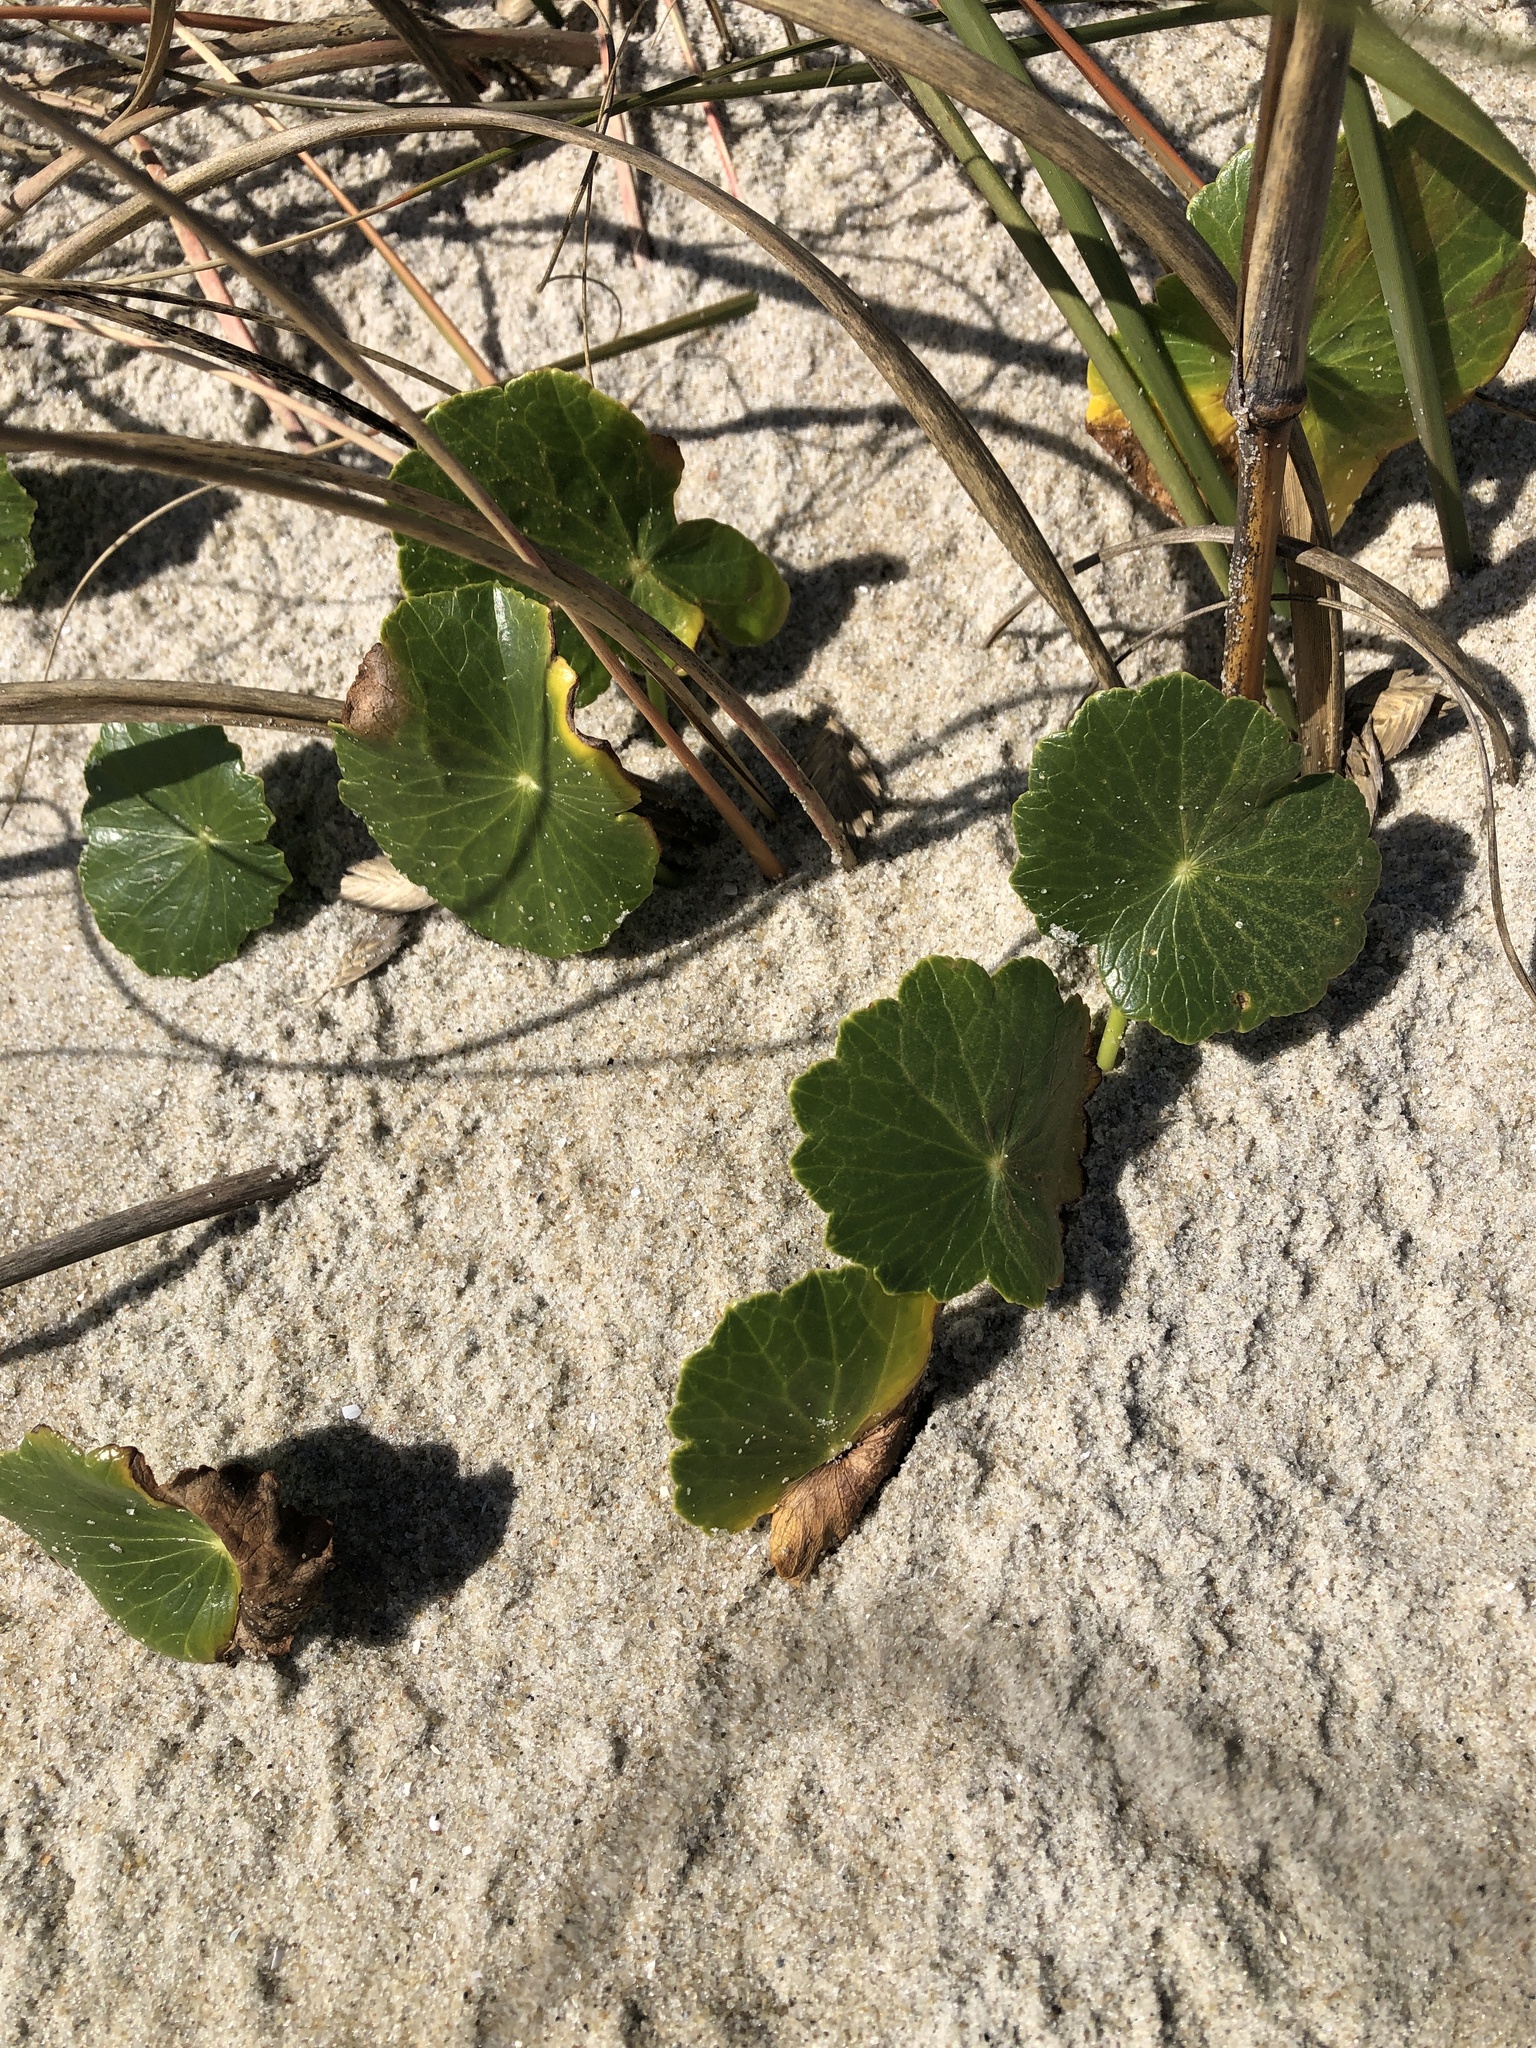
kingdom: Plantae
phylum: Tracheophyta
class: Magnoliopsida
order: Apiales
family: Araliaceae
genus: Hydrocotyle
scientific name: Hydrocotyle bonariensis
